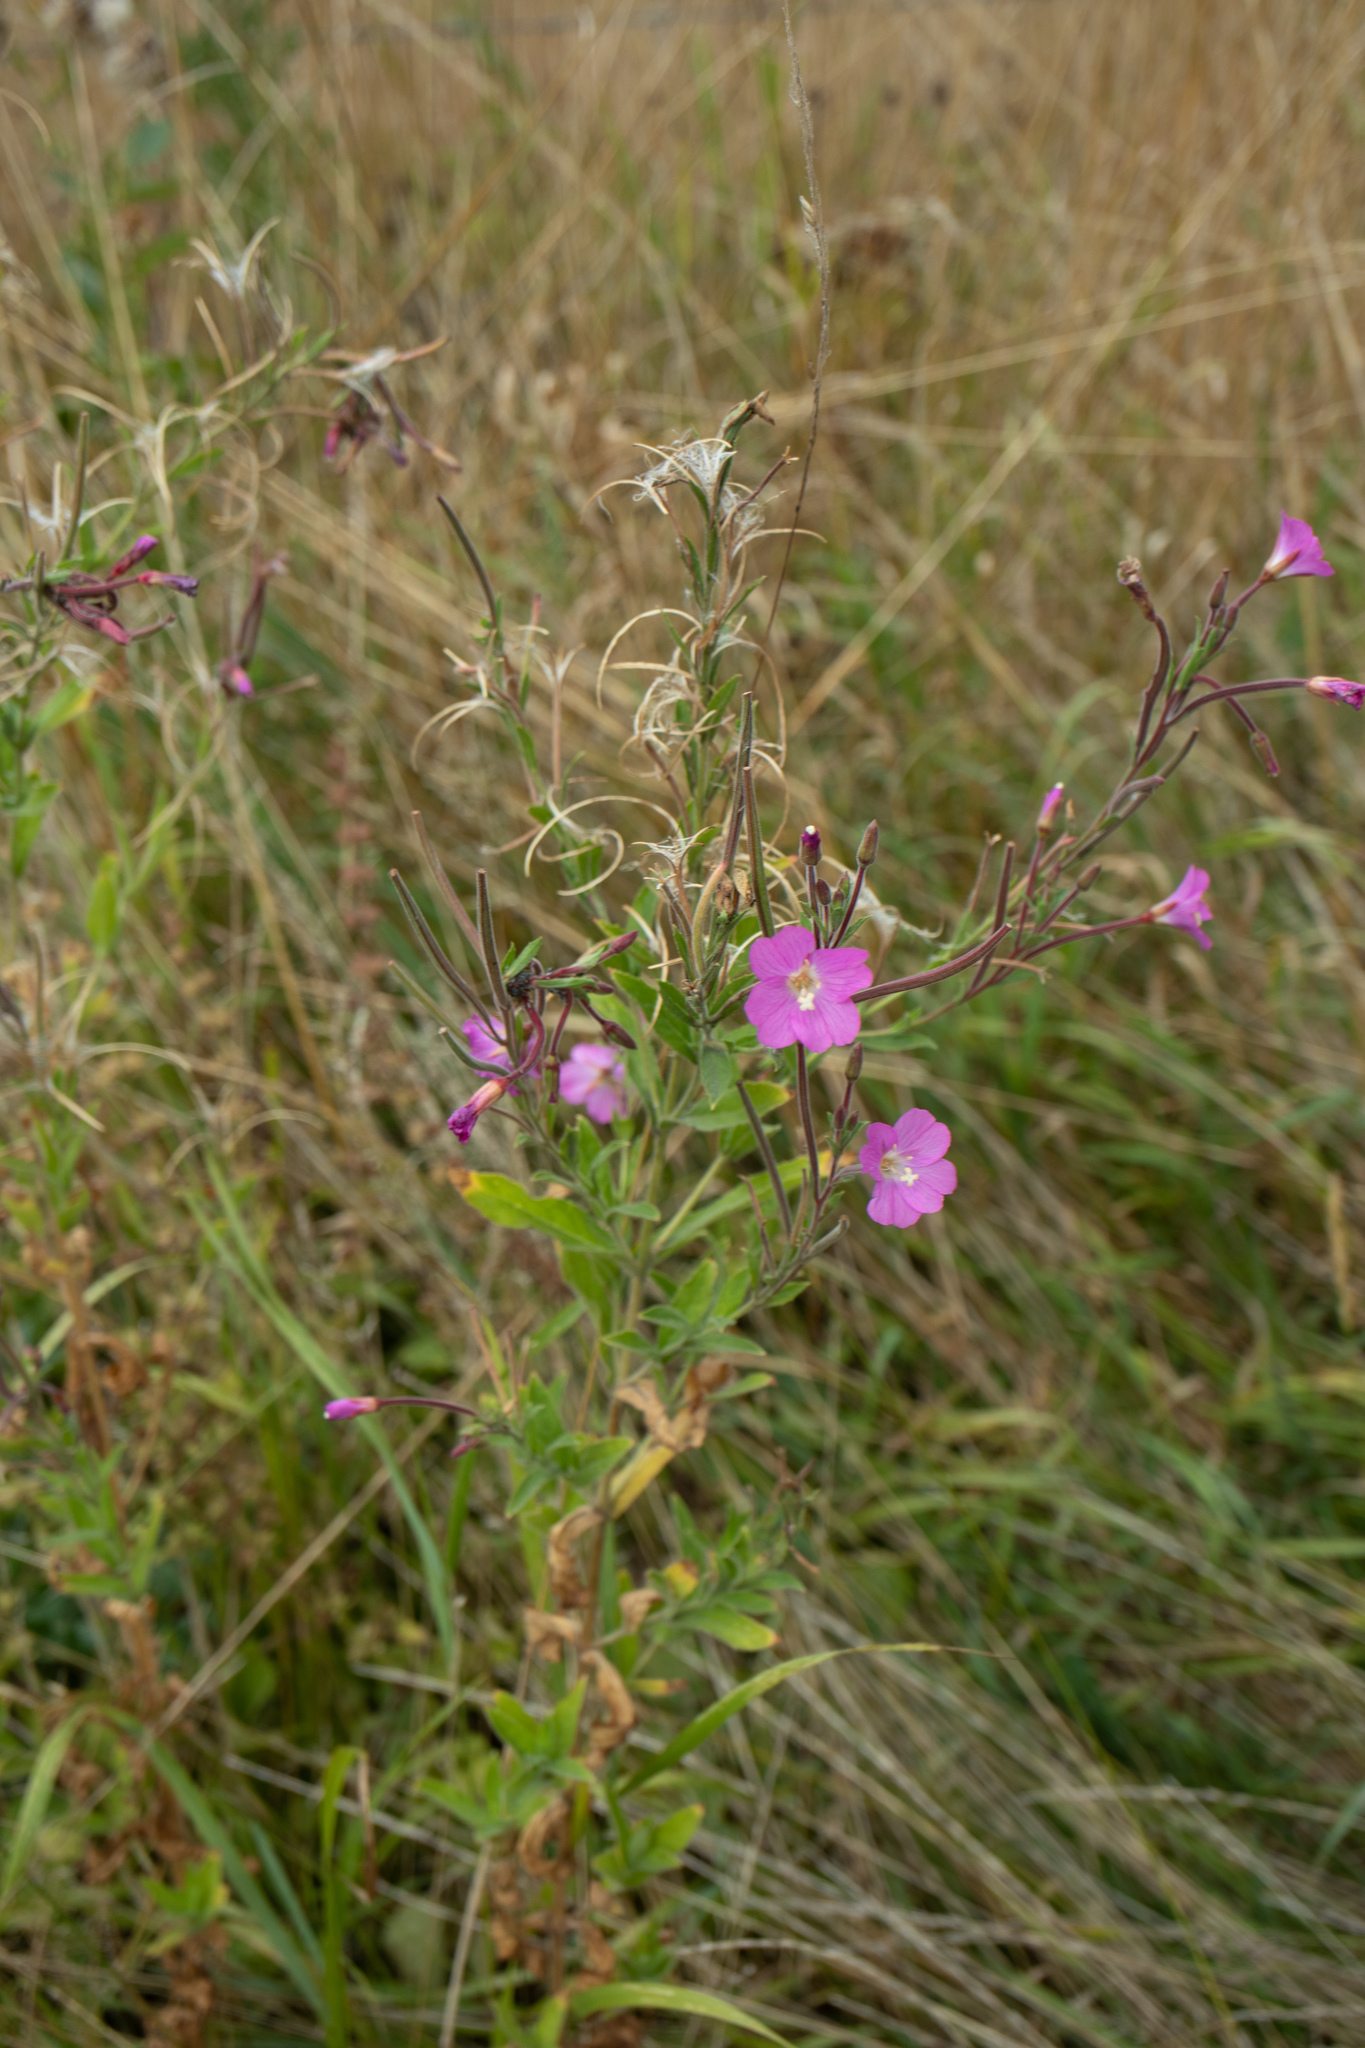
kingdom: Plantae
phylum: Tracheophyta
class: Magnoliopsida
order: Myrtales
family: Onagraceae
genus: Epilobium
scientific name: Epilobium hirsutum
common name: Great willowherb
